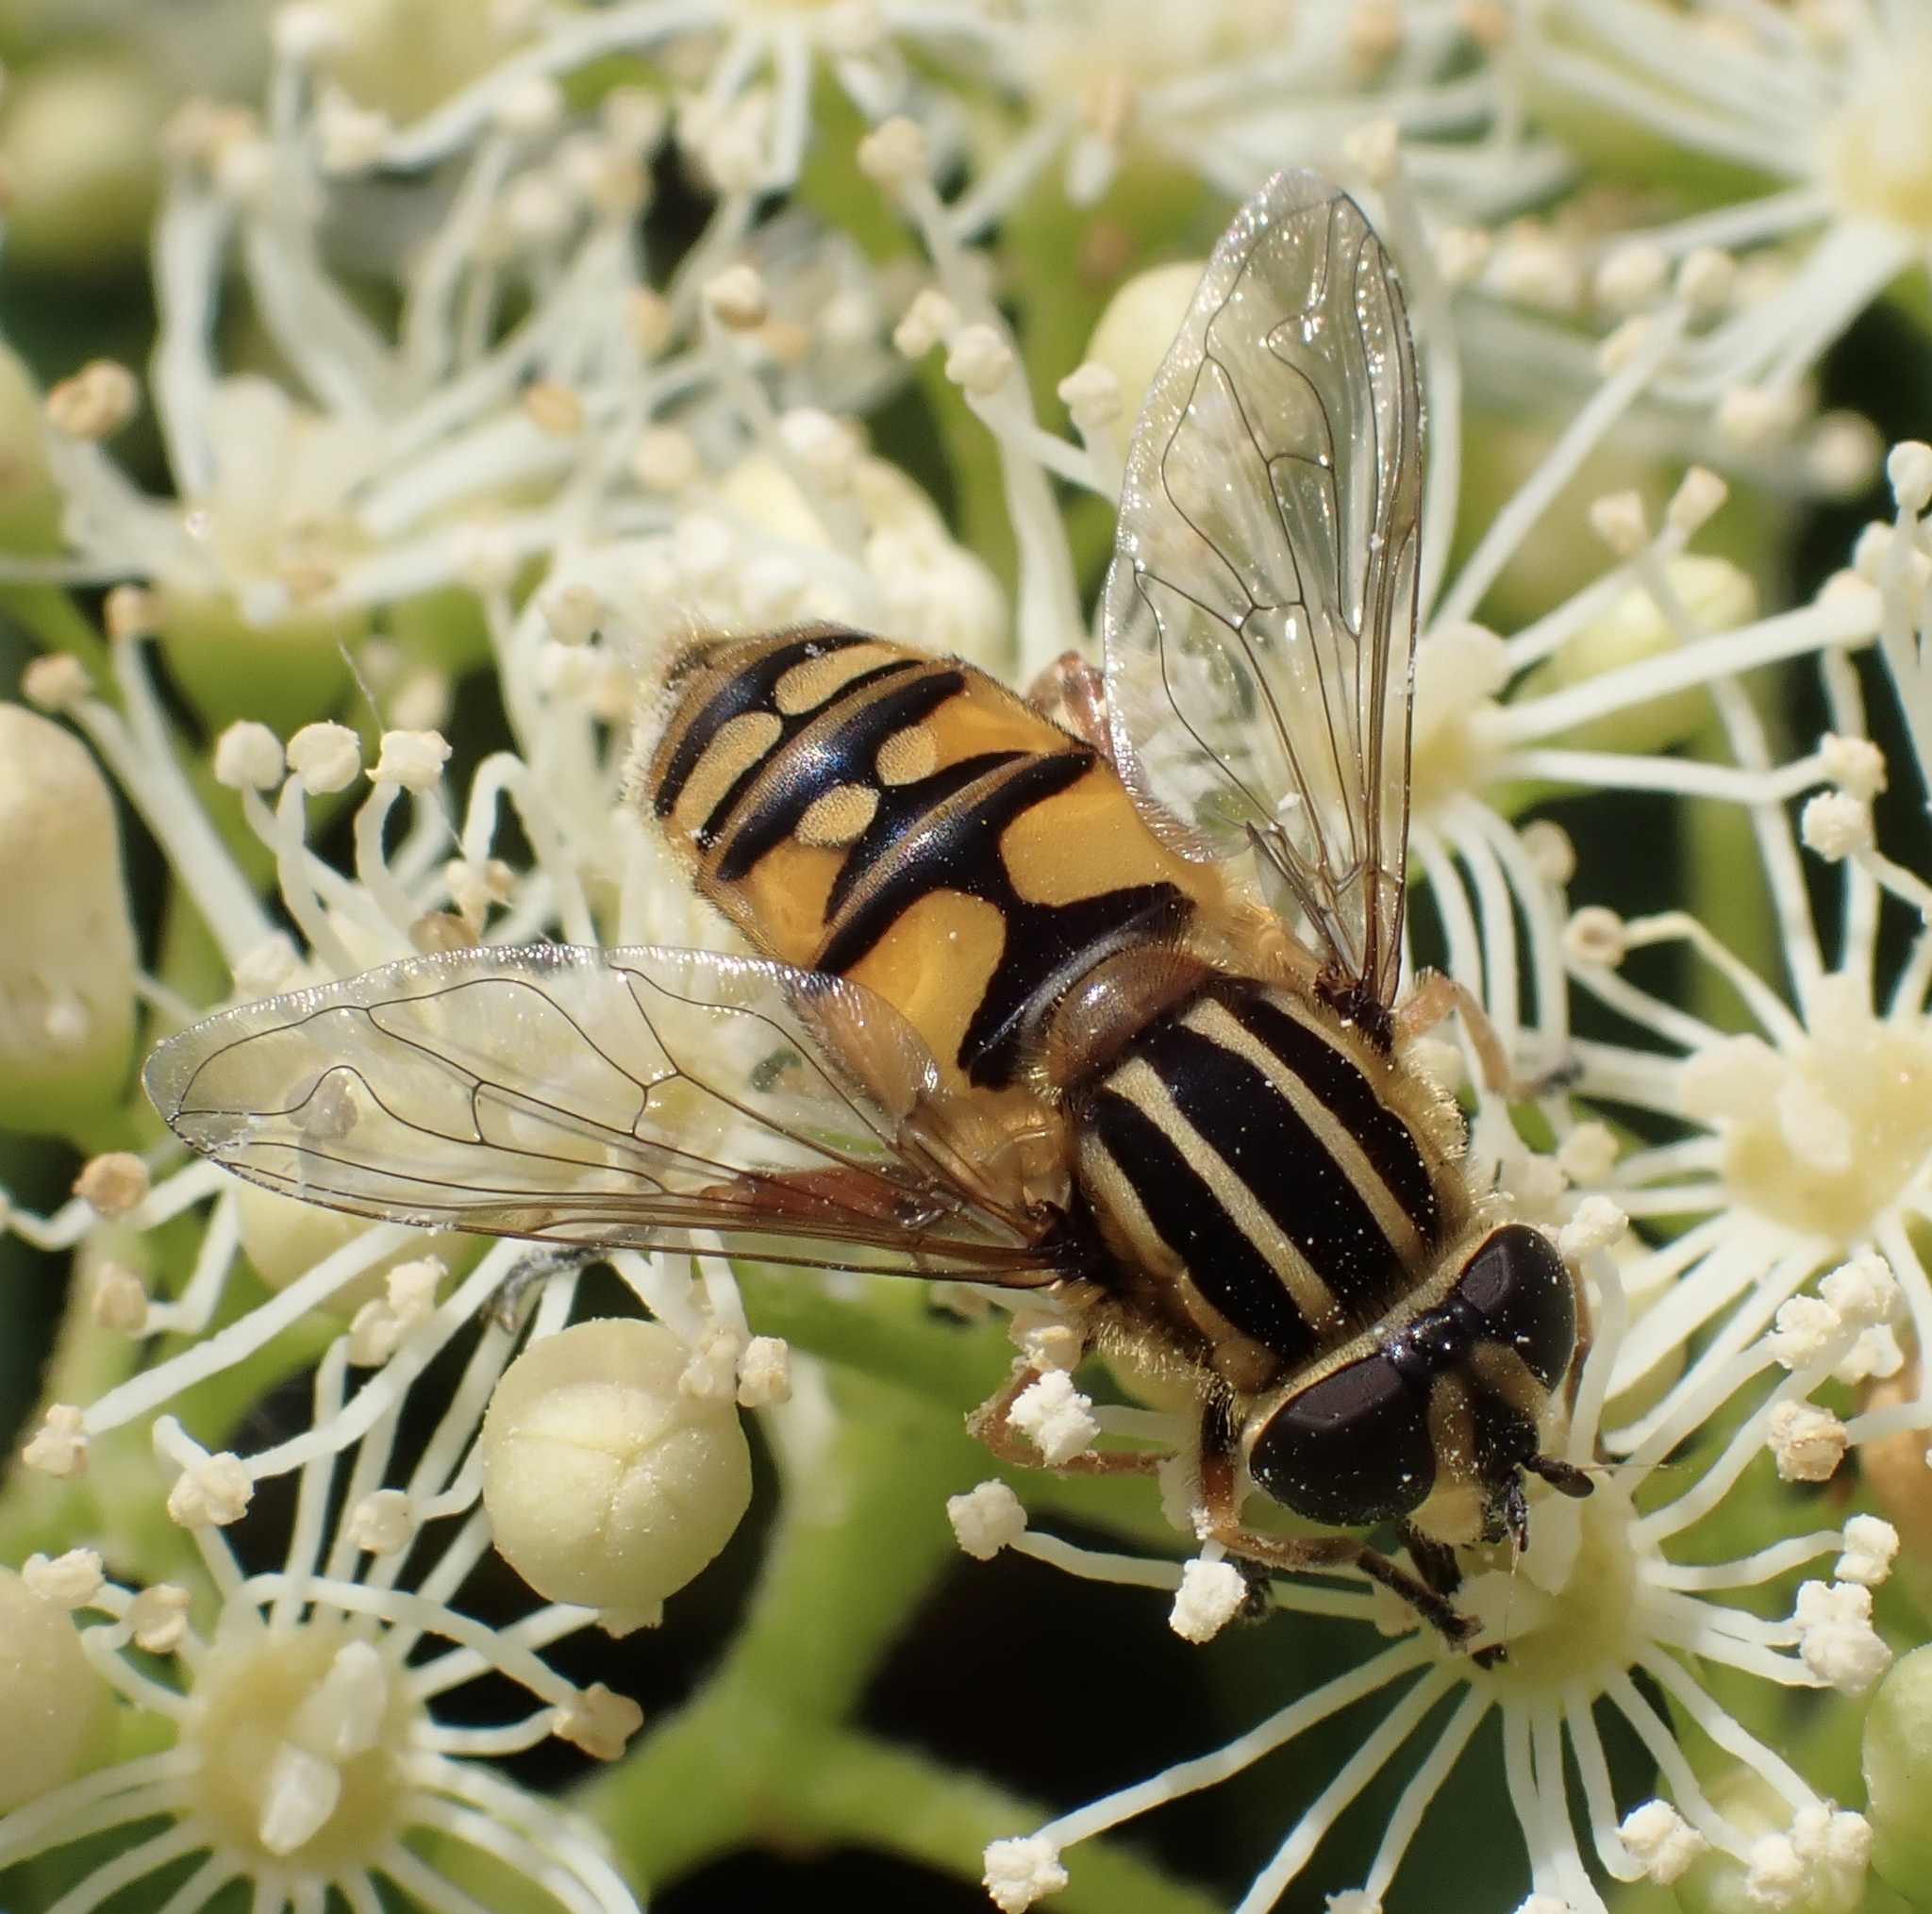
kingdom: Animalia
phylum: Arthropoda
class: Insecta
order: Diptera
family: Syrphidae
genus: Helophilus
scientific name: Helophilus pendulus
